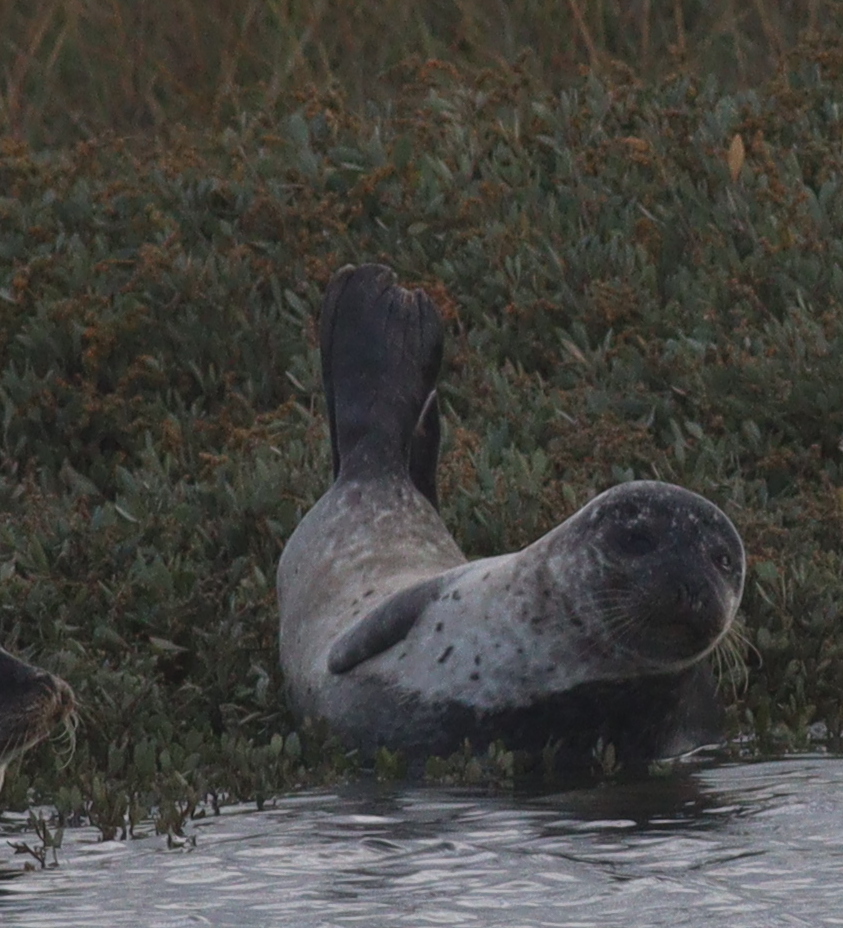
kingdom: Animalia
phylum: Chordata
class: Mammalia
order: Carnivora
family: Phocidae
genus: Phoca
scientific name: Phoca vitulina
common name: Harbor seal
